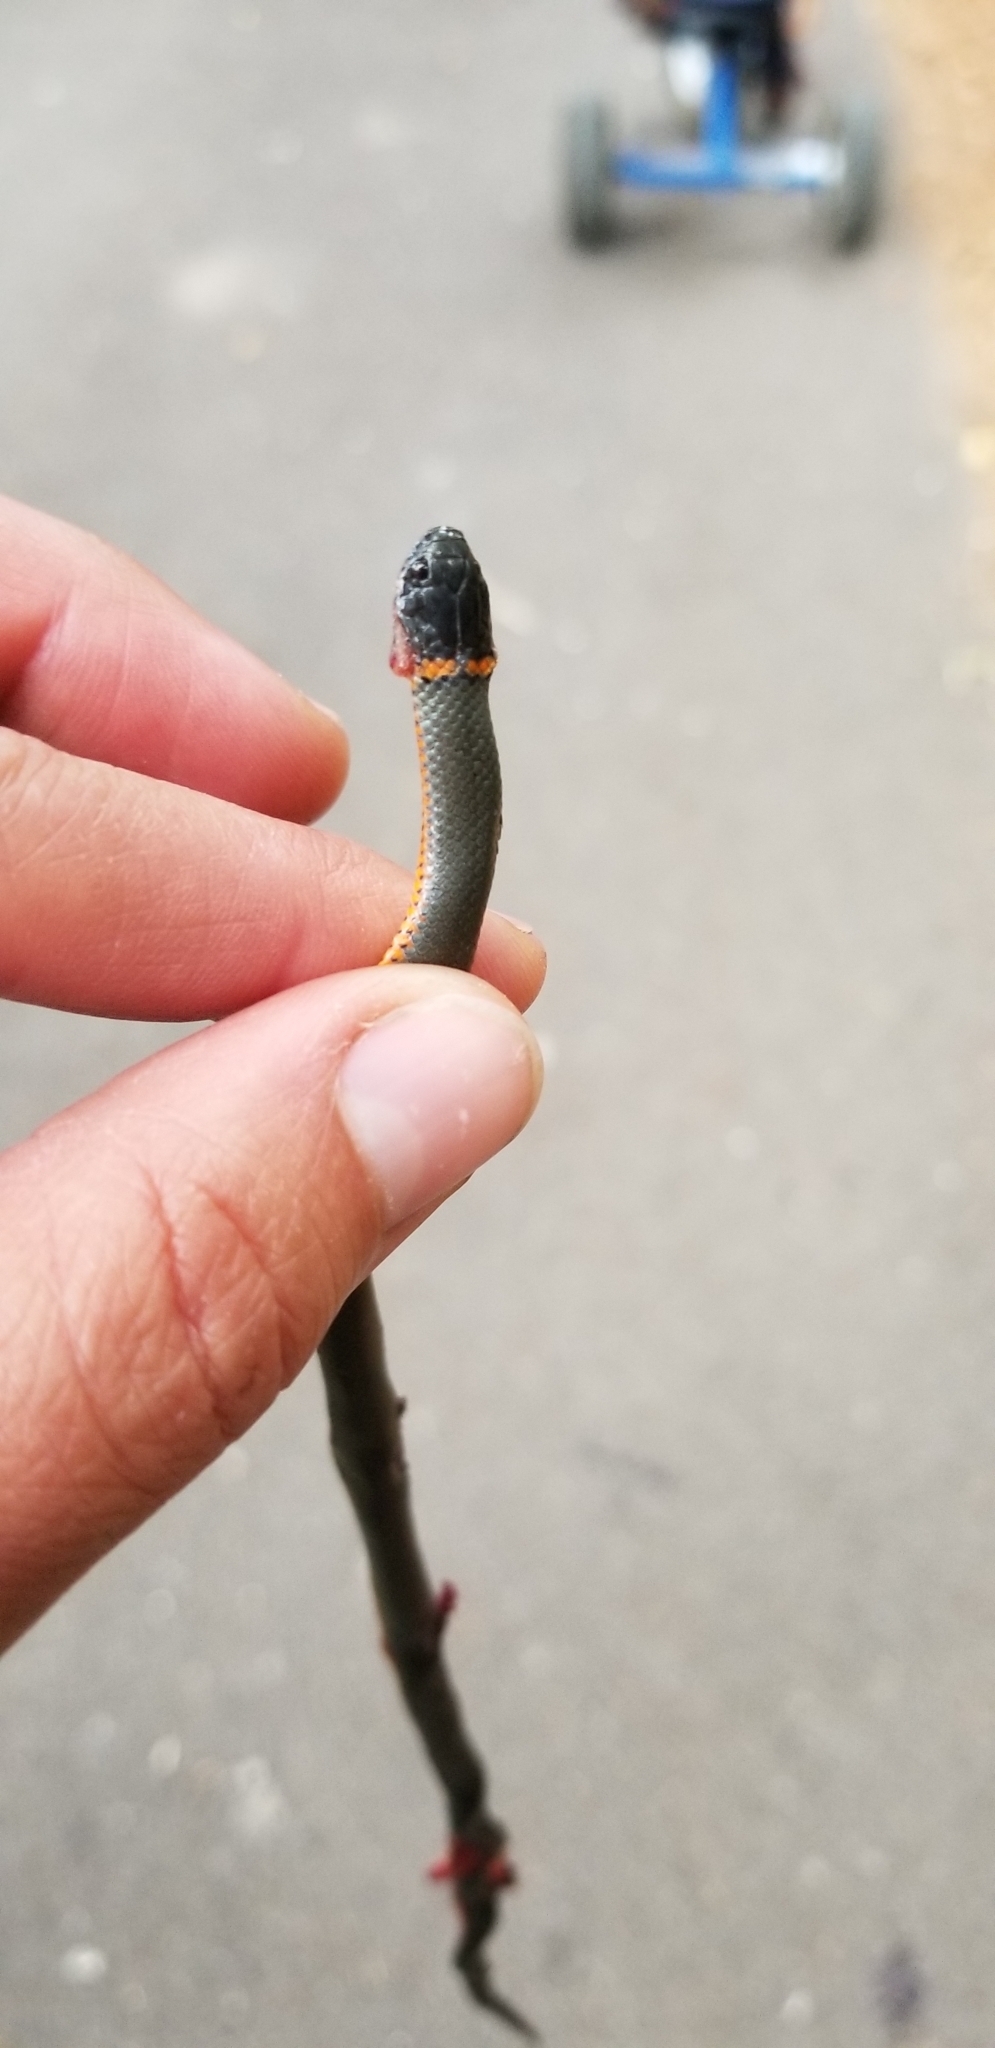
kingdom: Animalia
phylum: Chordata
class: Squamata
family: Colubridae
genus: Diadophis
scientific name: Diadophis punctatus
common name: Ringneck snake
